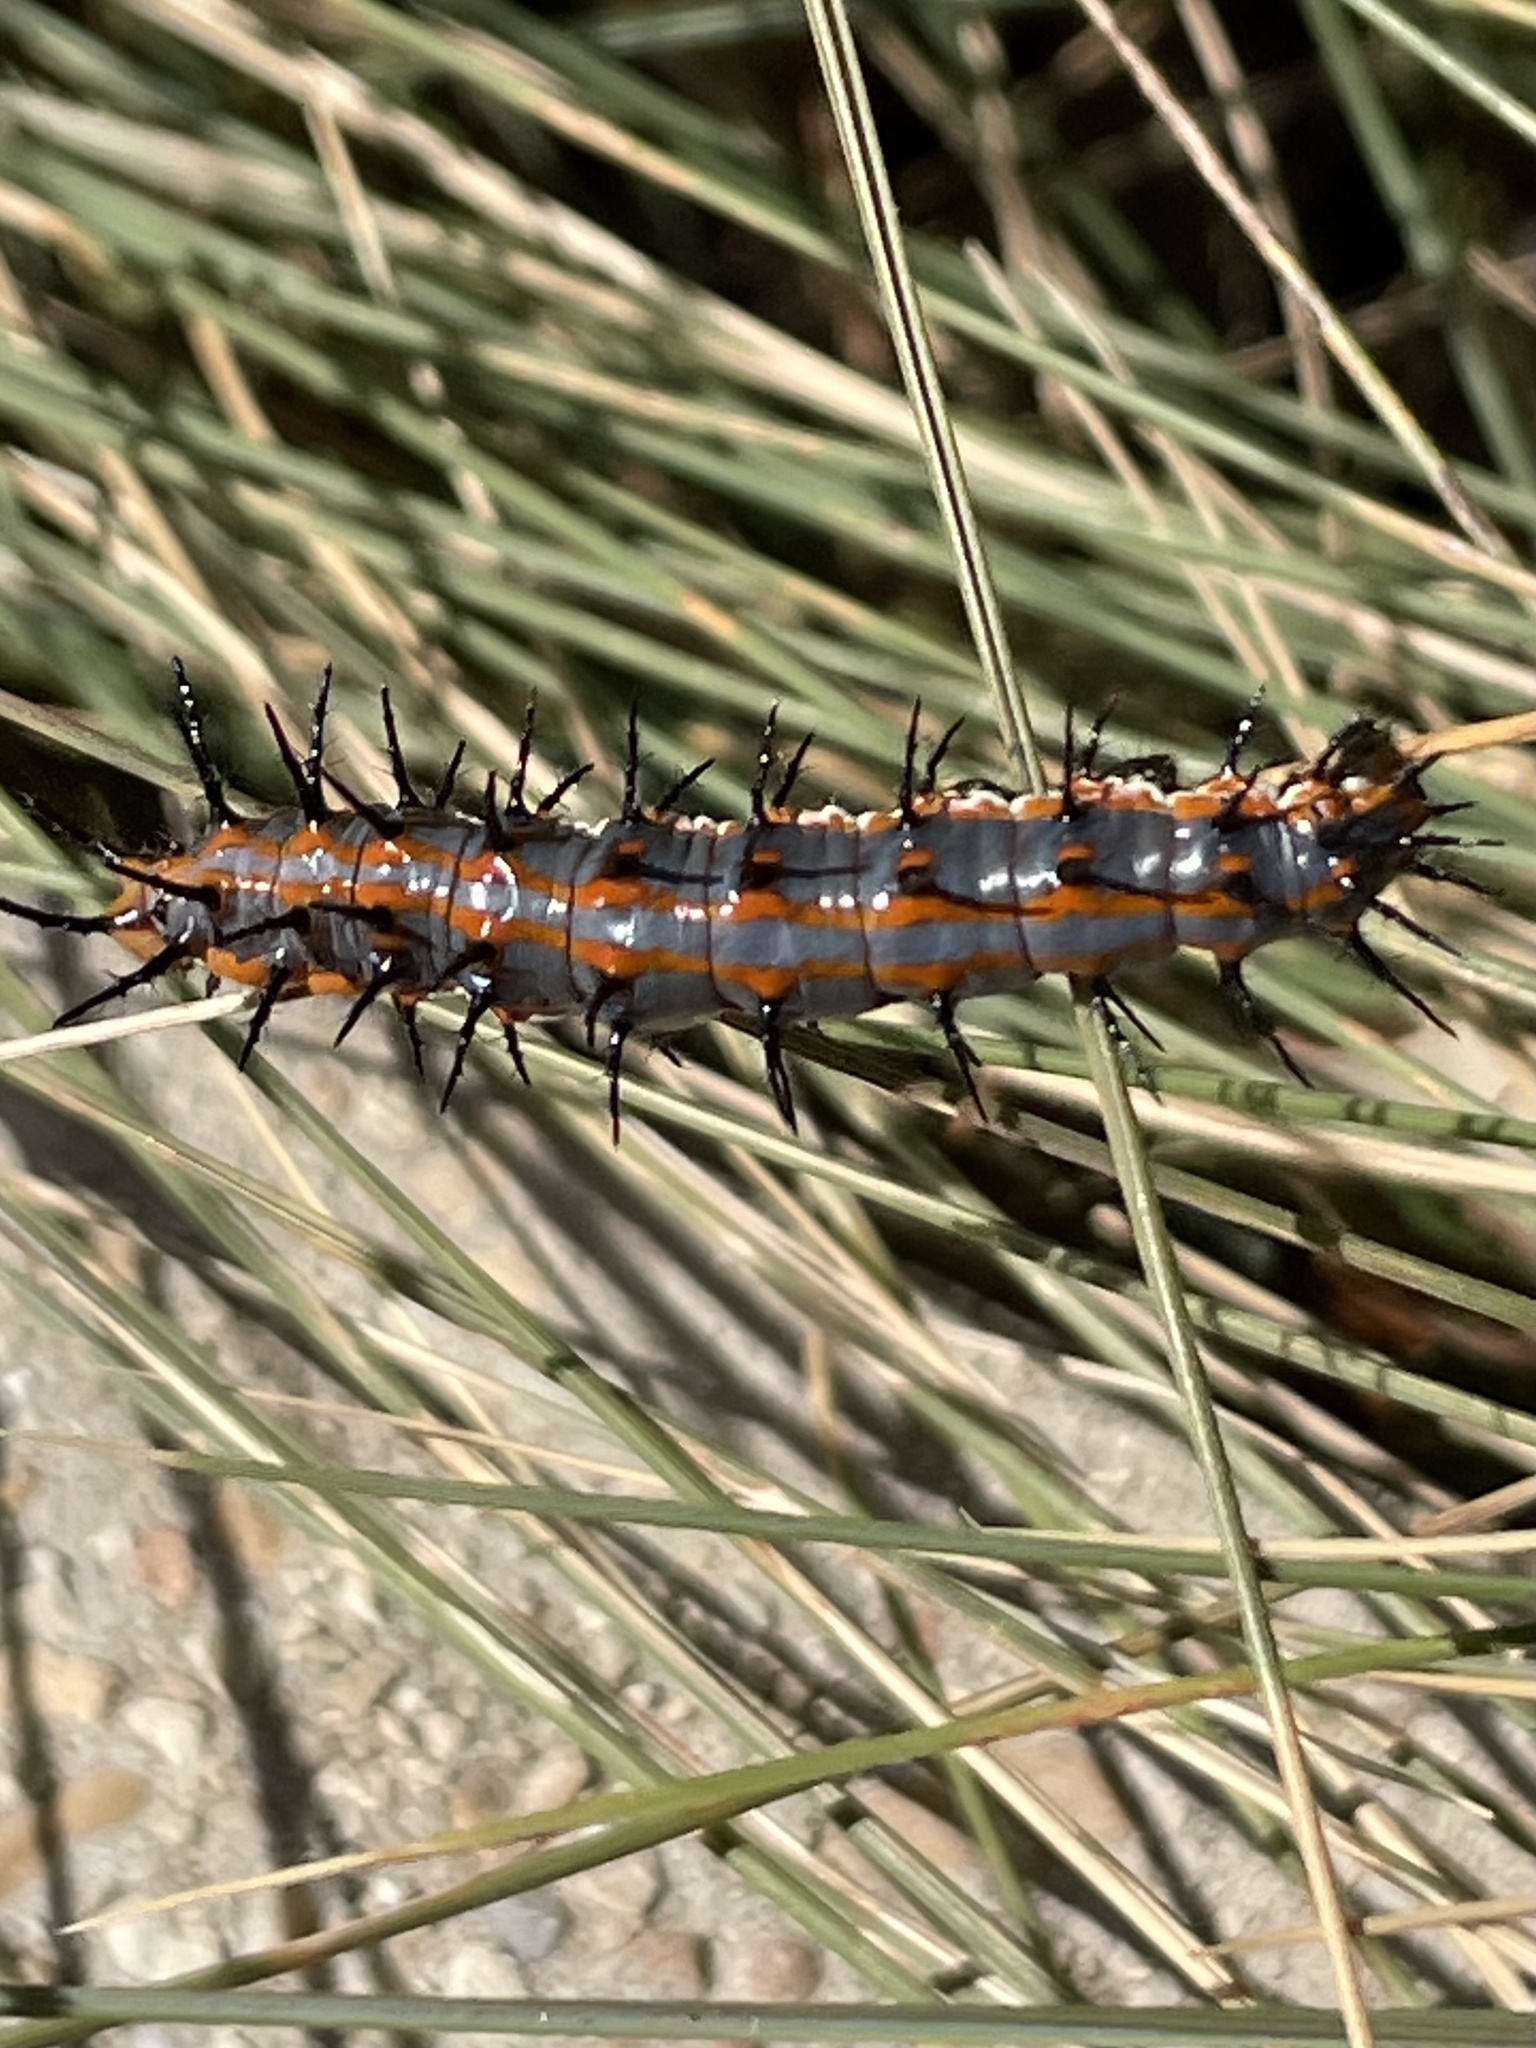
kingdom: Animalia
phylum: Arthropoda
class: Insecta
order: Lepidoptera
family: Nymphalidae
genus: Dione
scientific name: Dione vanillae
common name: Gulf fritillary
